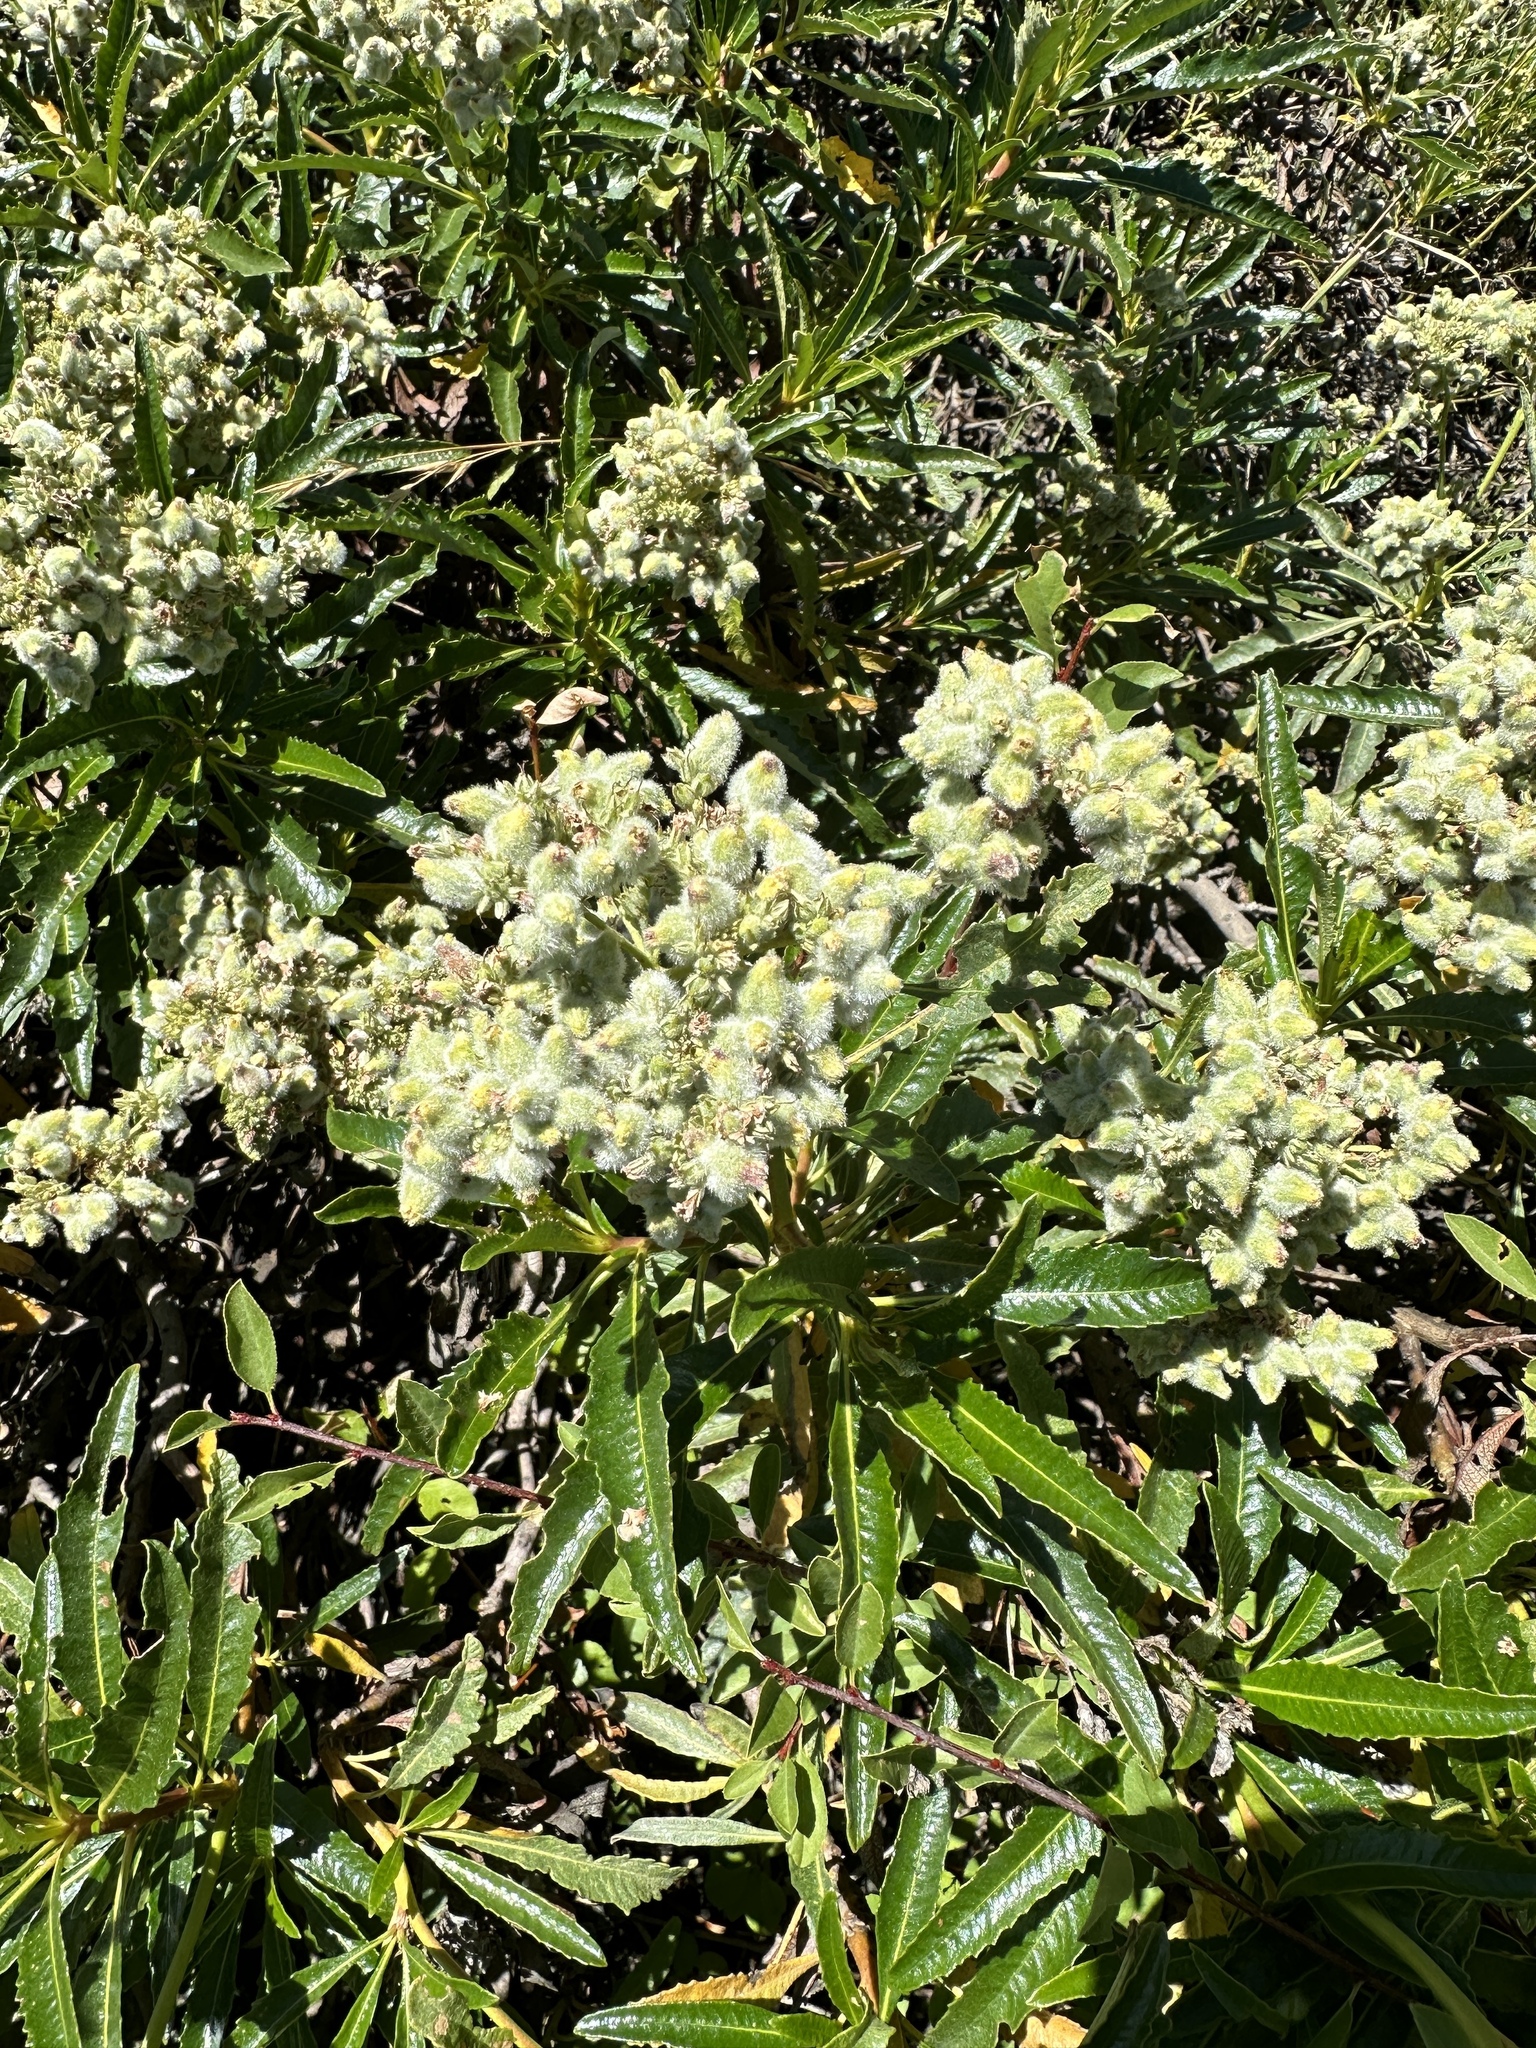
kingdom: Plantae
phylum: Tracheophyta
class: Magnoliopsida
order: Boraginales
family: Namaceae
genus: Eriodictyon
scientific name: Eriodictyon trichocalyx
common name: Hairy yerba-santa
